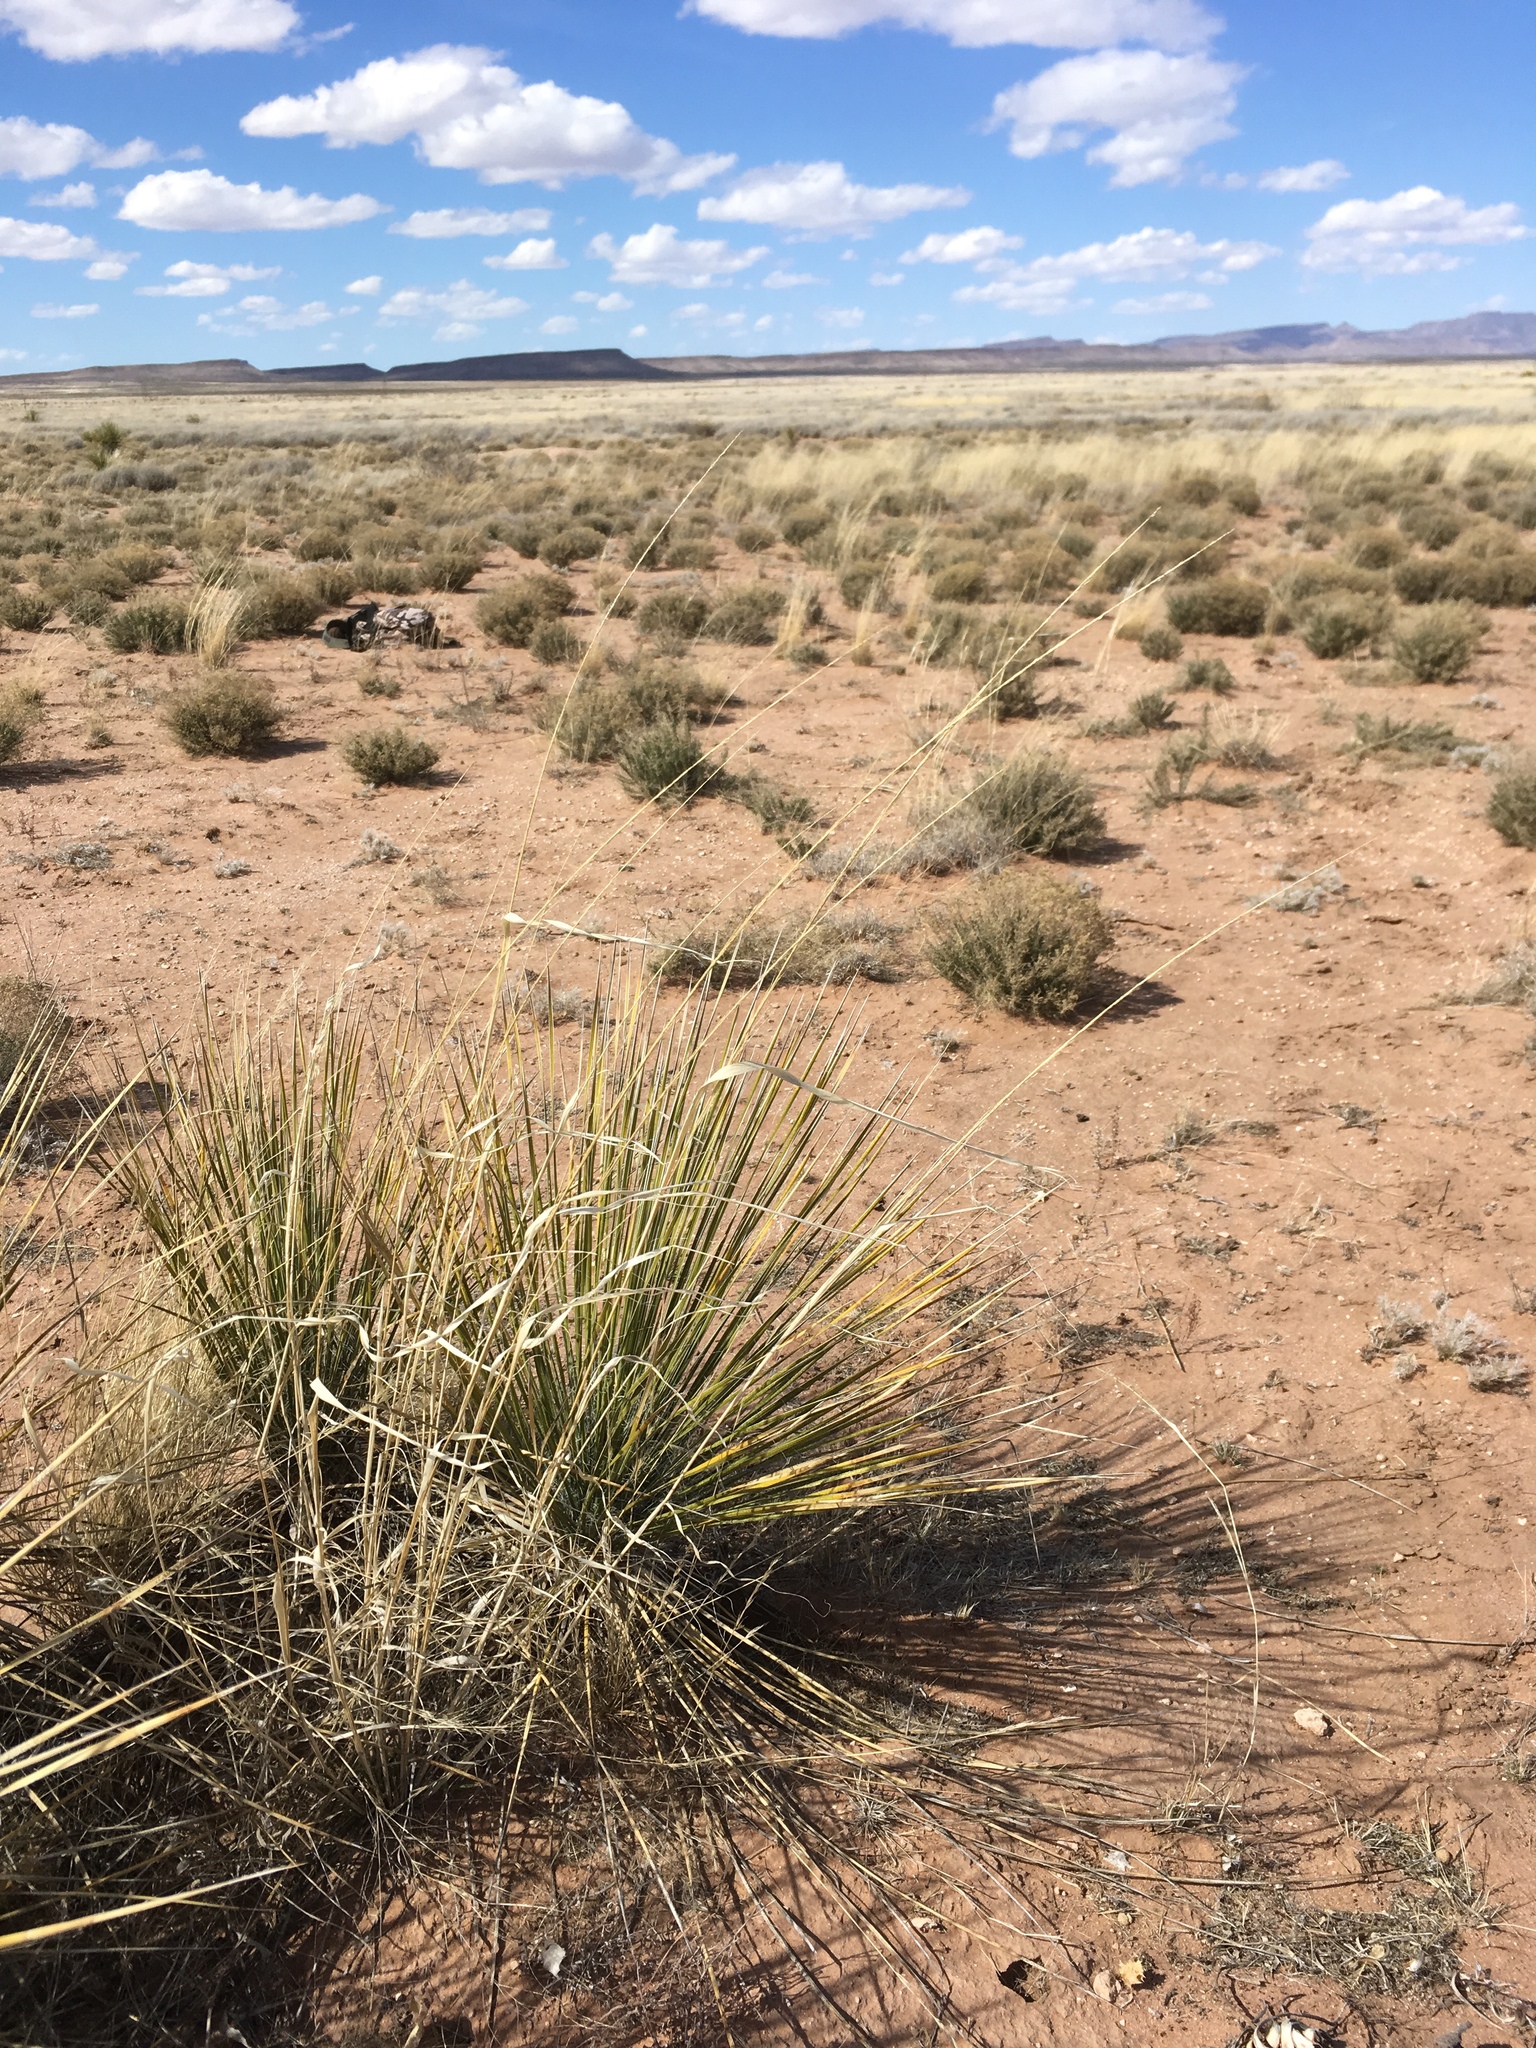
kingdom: Plantae
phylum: Tracheophyta
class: Liliopsida
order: Poales
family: Poaceae
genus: Sporobolus
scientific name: Sporobolus contractus
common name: Spike dropseed
